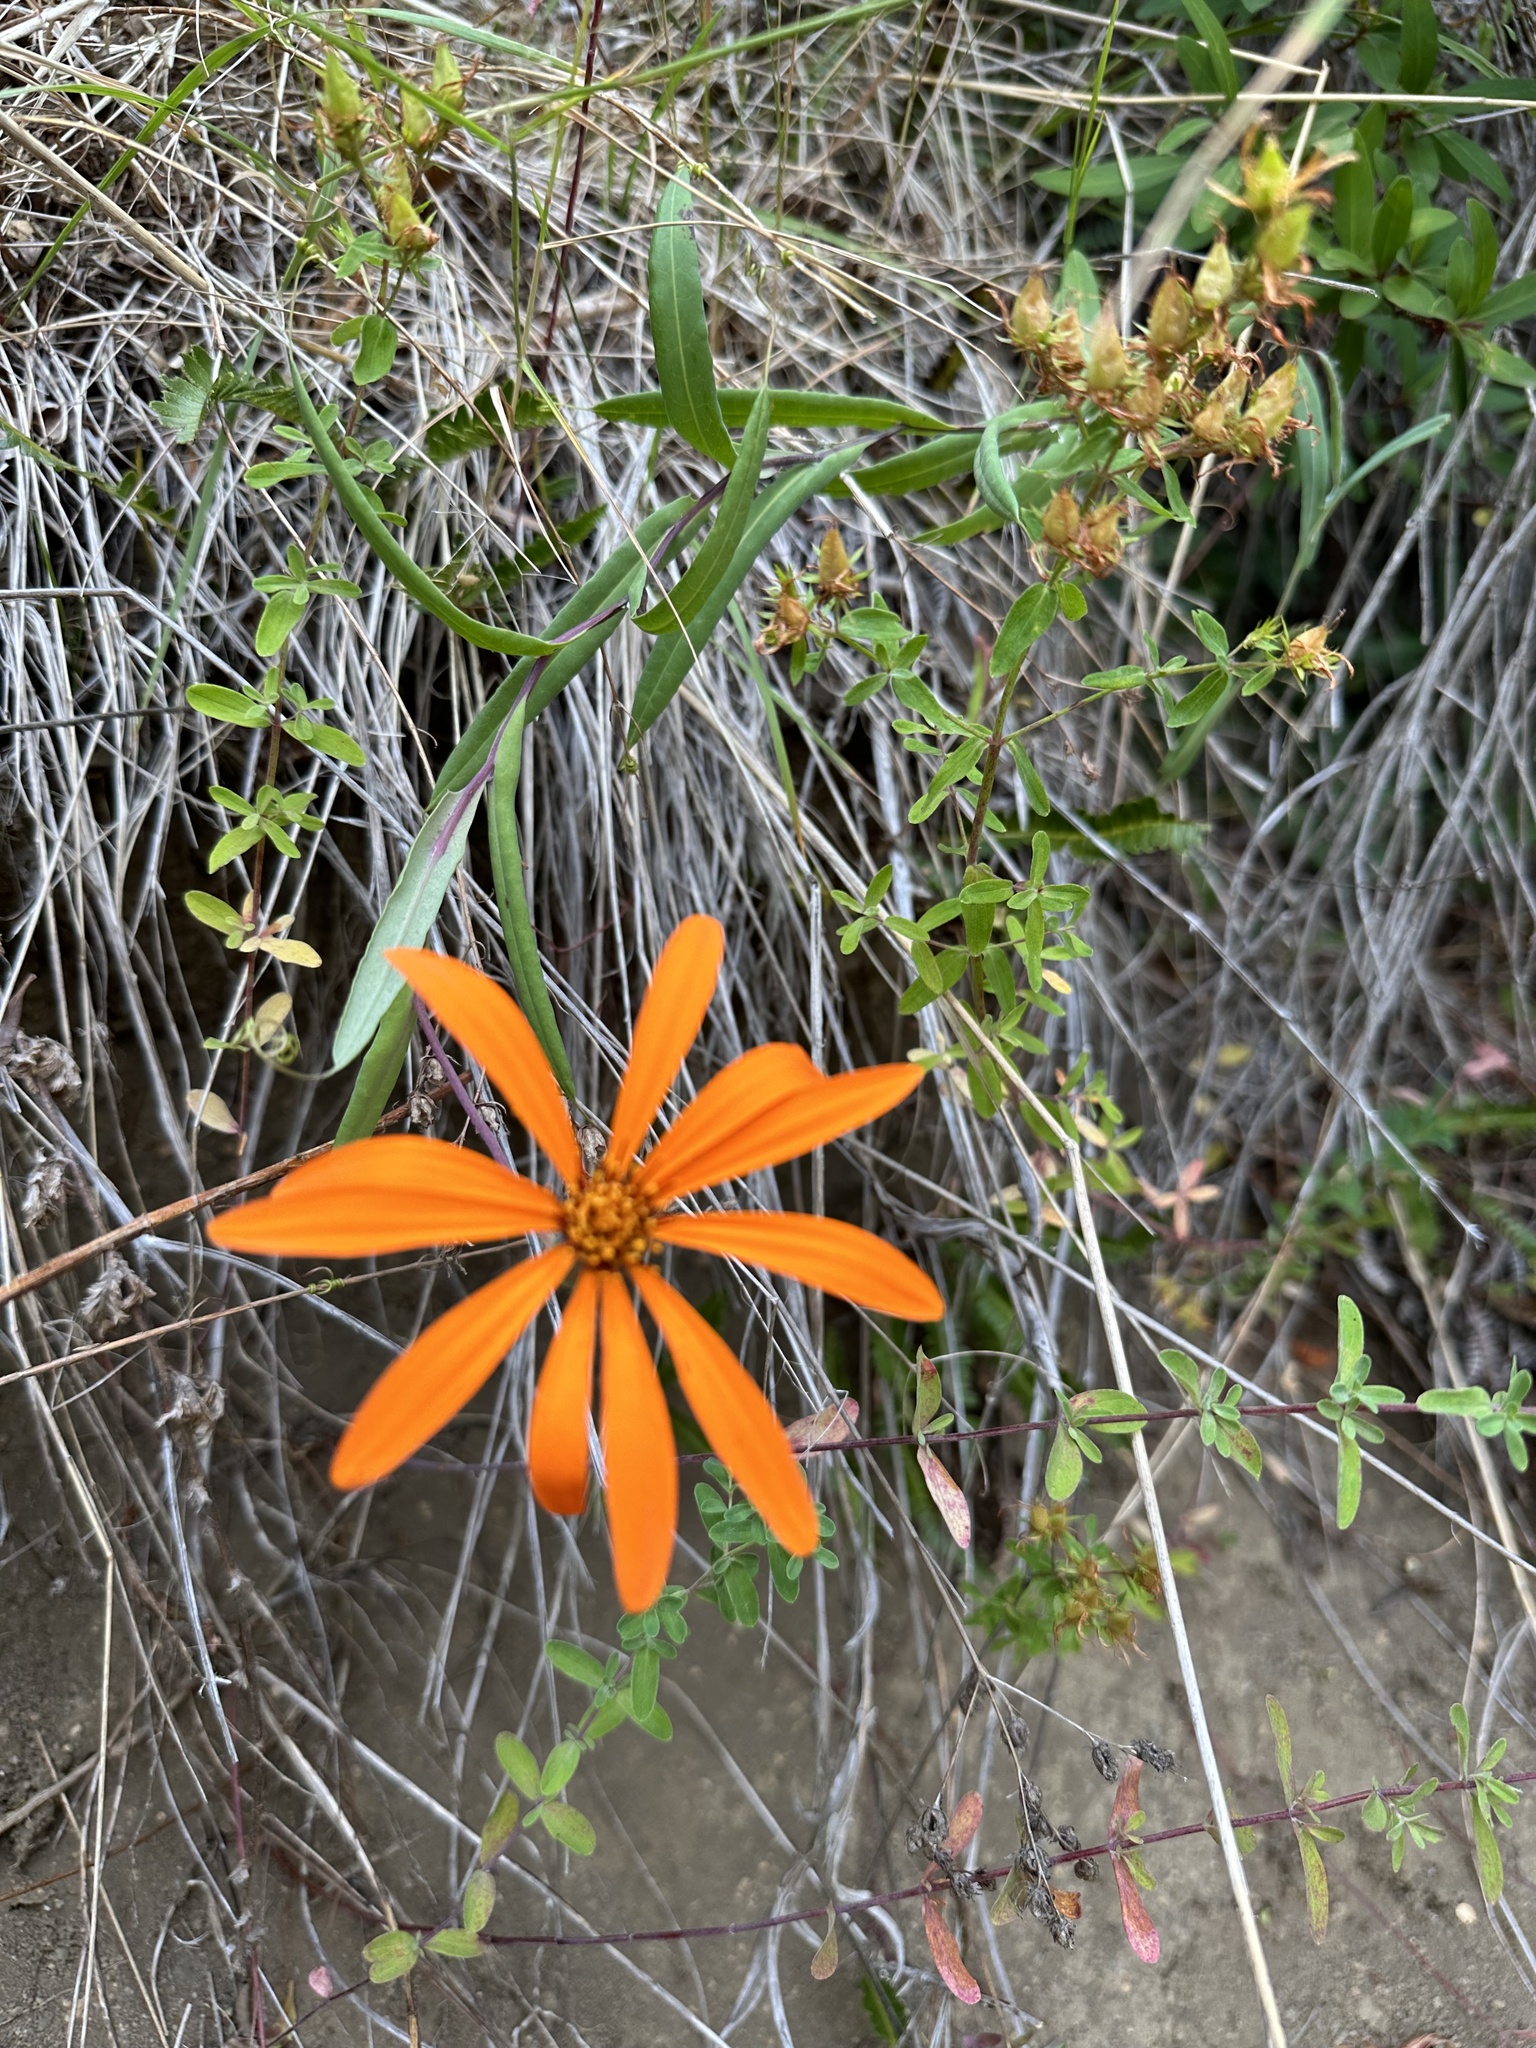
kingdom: Plantae
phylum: Tracheophyta
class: Magnoliopsida
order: Asterales
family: Asteraceae
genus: Mutisia
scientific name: Mutisia decurrens
